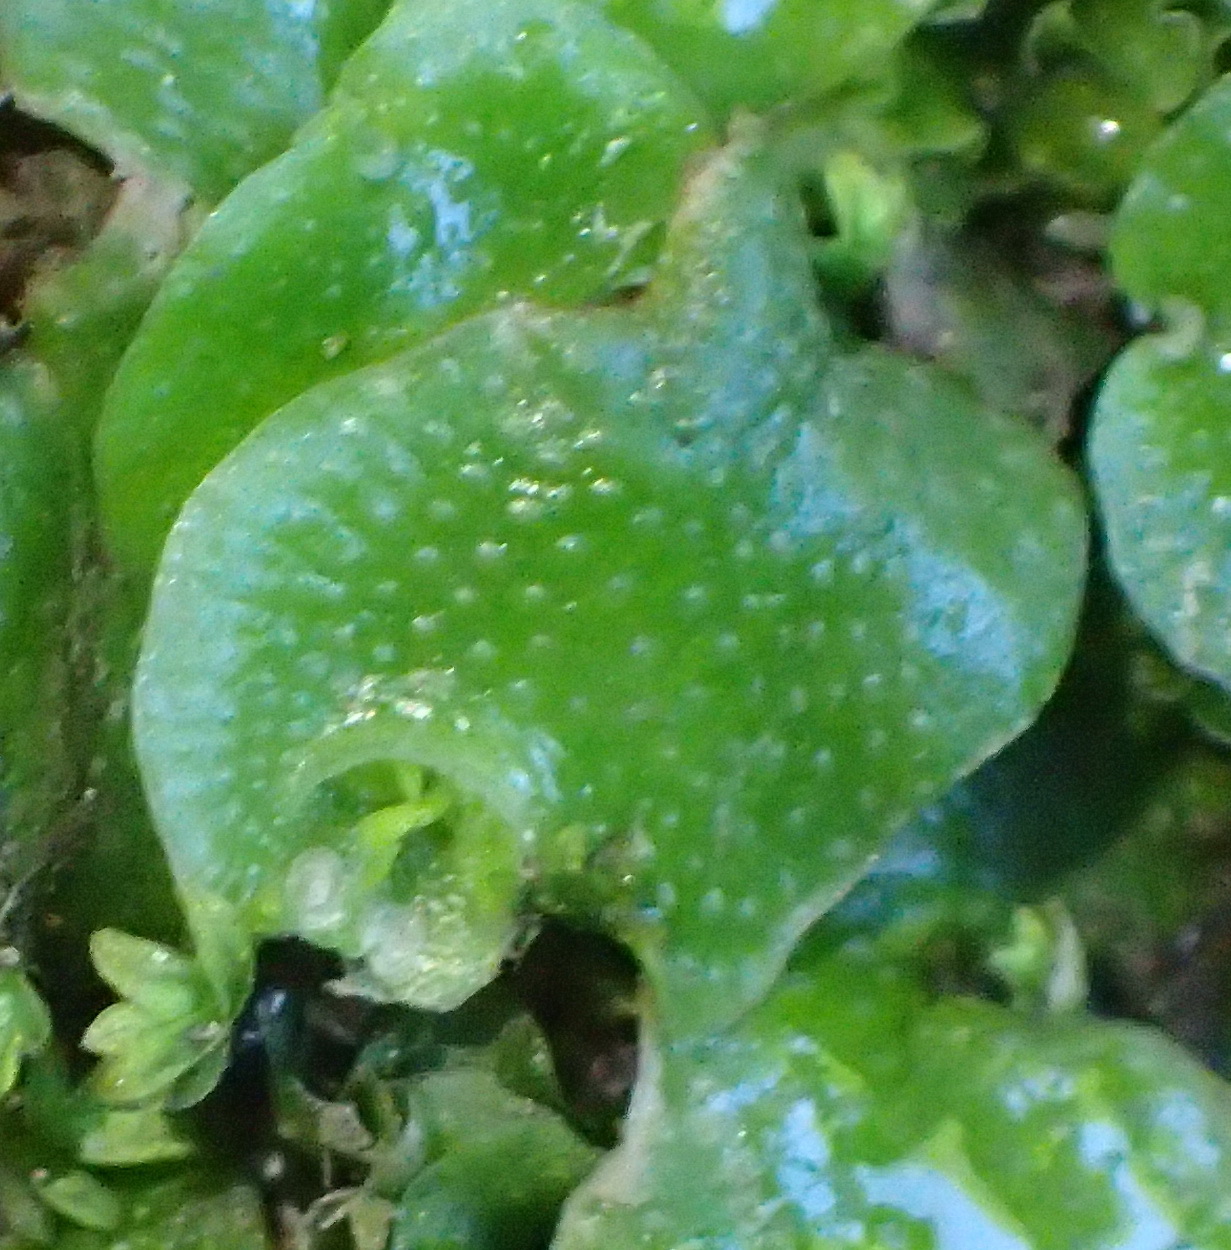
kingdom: Plantae
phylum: Marchantiophyta
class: Marchantiopsida
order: Lunulariales
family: Lunulariaceae
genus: Lunularia
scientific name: Lunularia cruciata
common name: Crescent-cup liverwort
